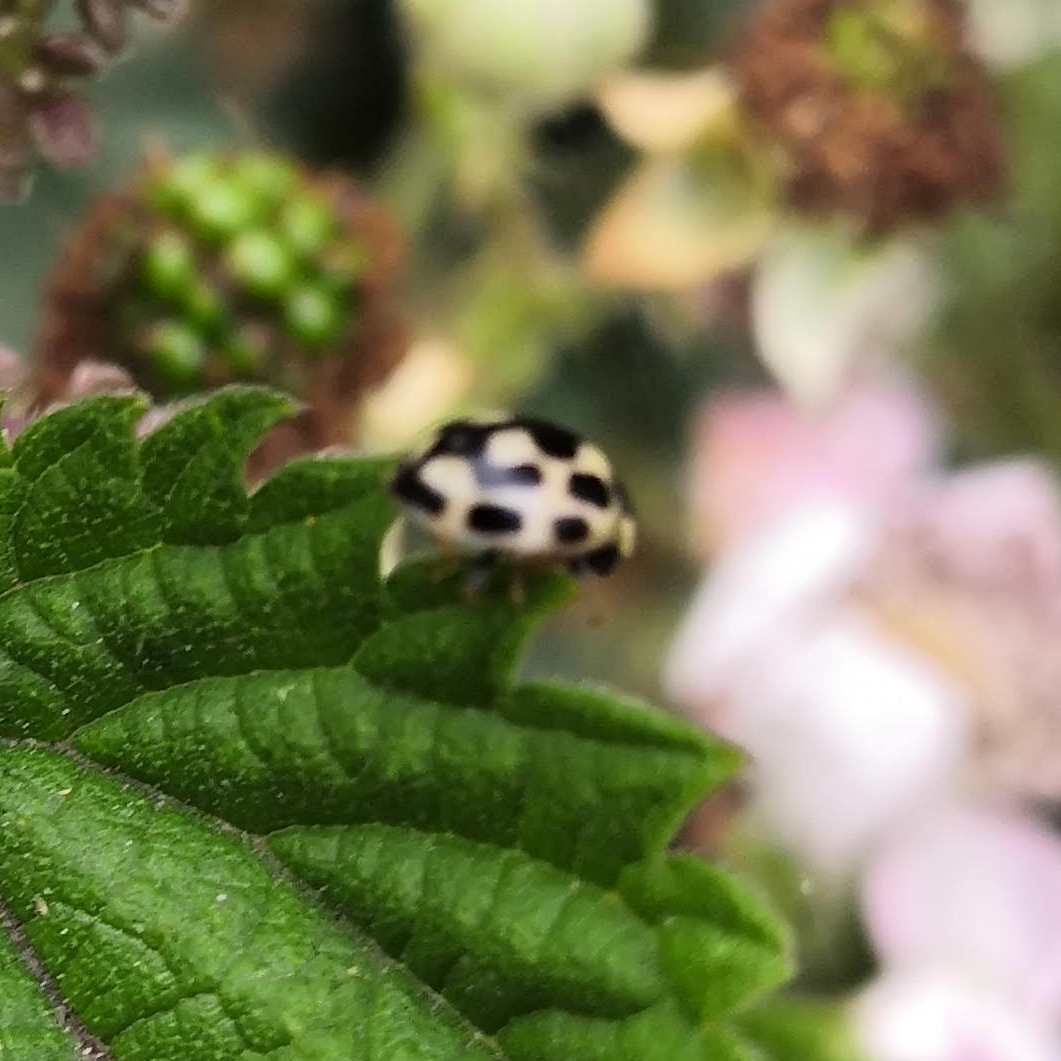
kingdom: Animalia
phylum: Arthropoda
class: Insecta
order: Coleoptera
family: Coccinellidae
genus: Propylaea
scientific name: Propylaea quatuordecimpunctata
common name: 14-spotted ladybird beetle
